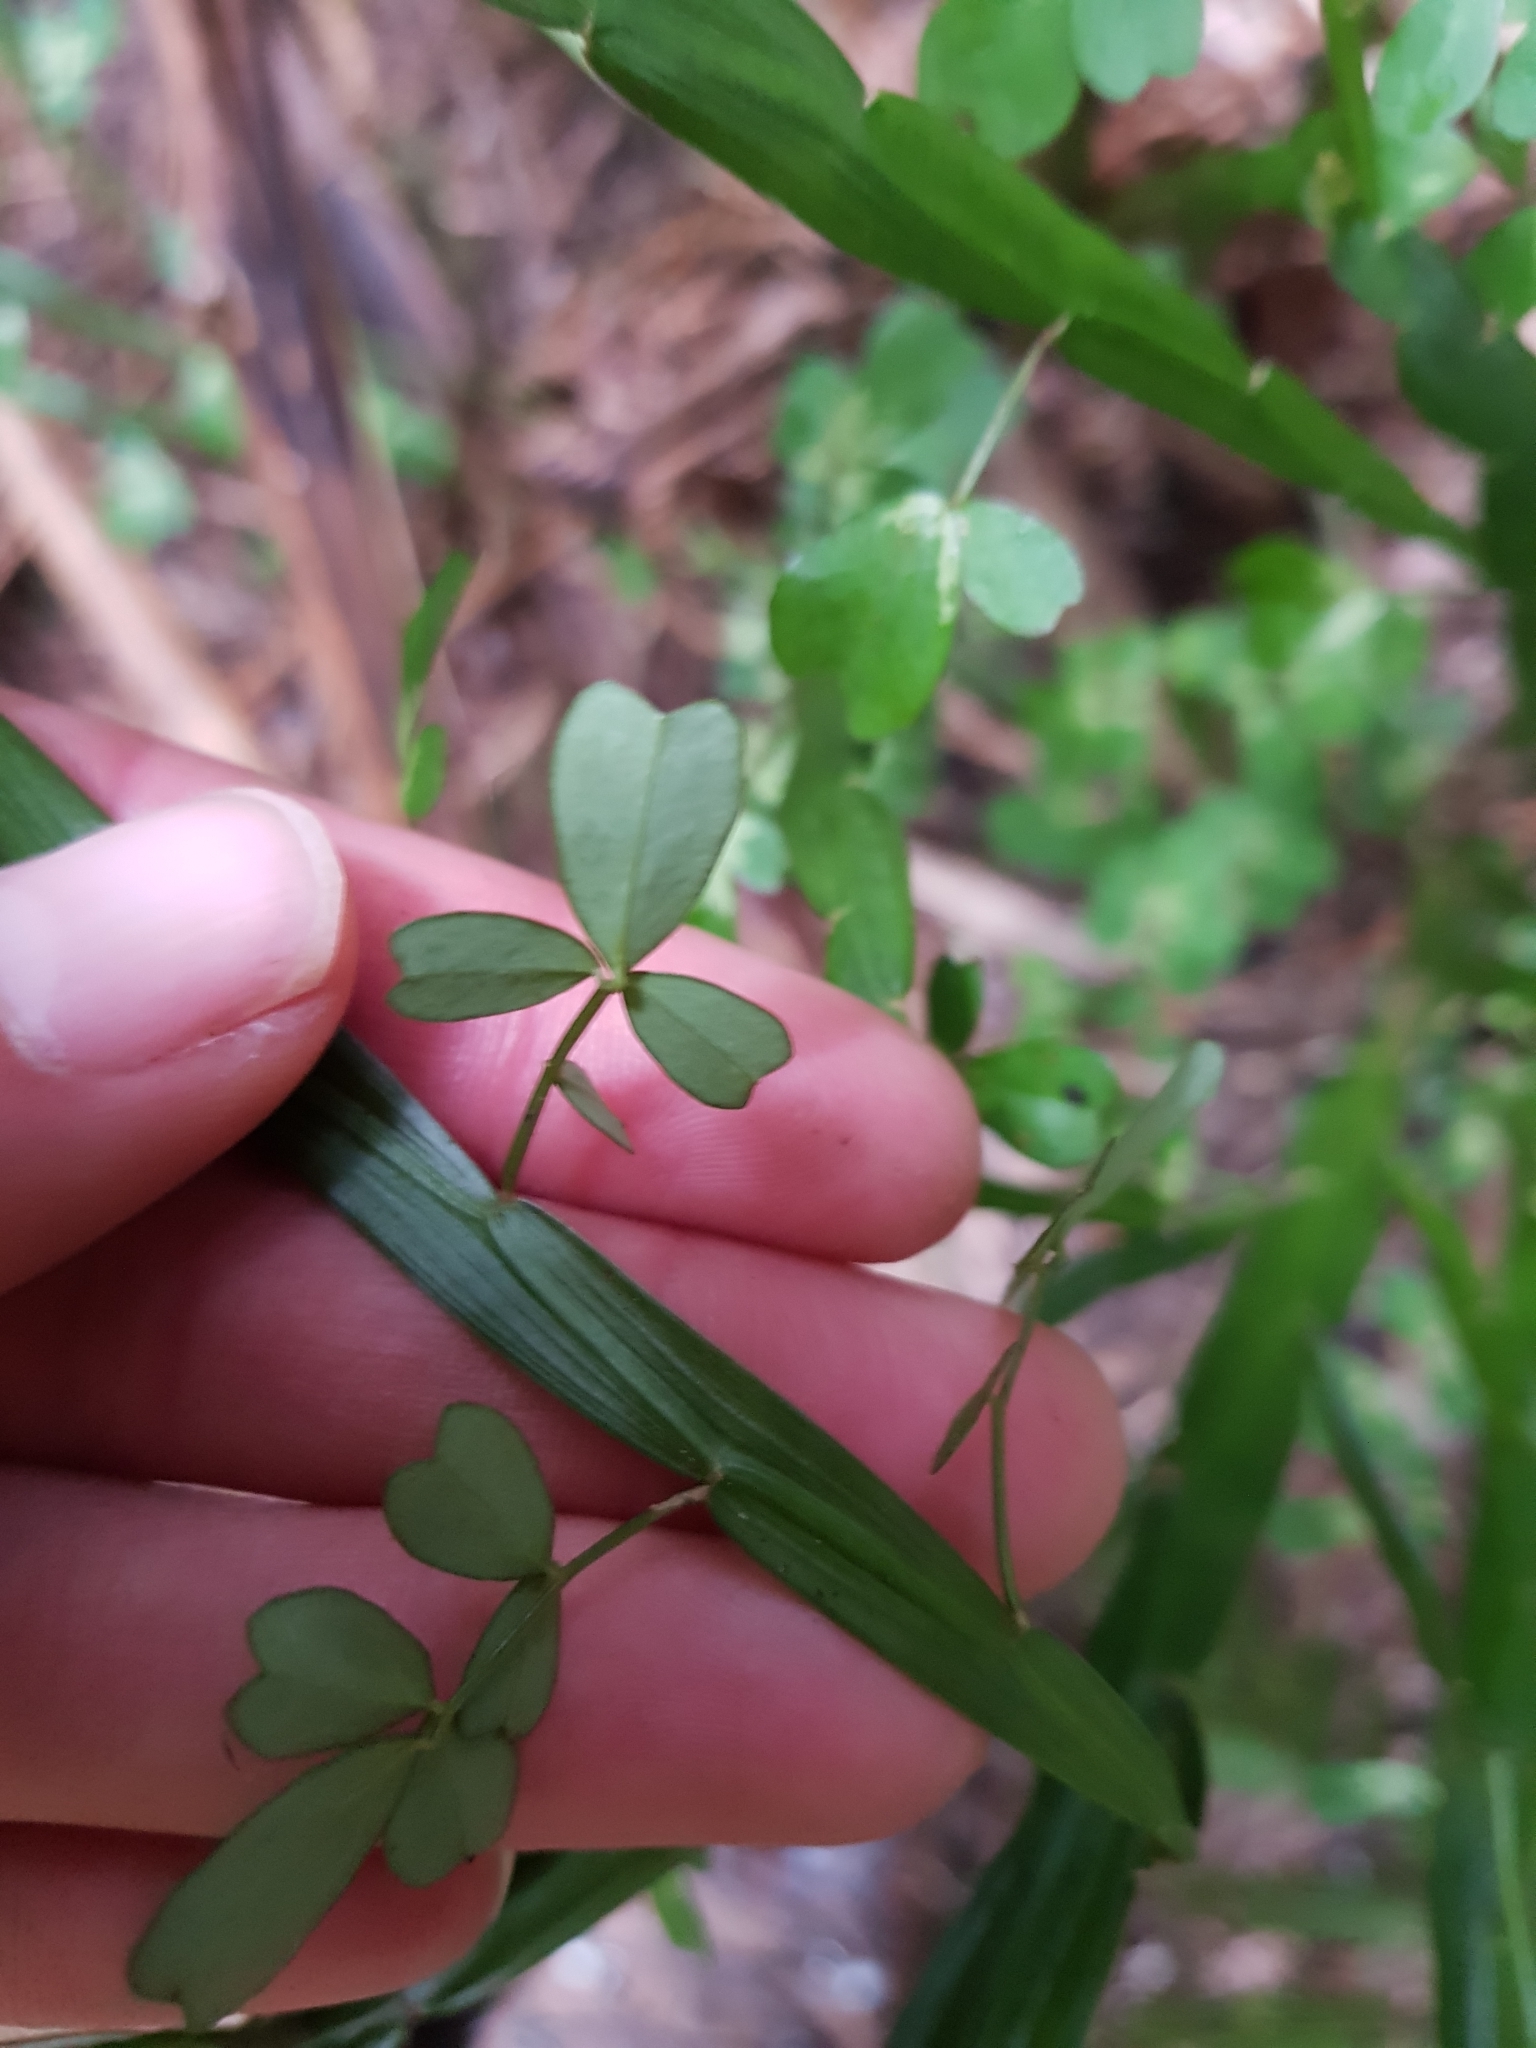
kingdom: Plantae
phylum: Tracheophyta
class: Magnoliopsida
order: Fabales
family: Fabaceae
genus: Carmichaelia
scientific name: Carmichaelia australis
